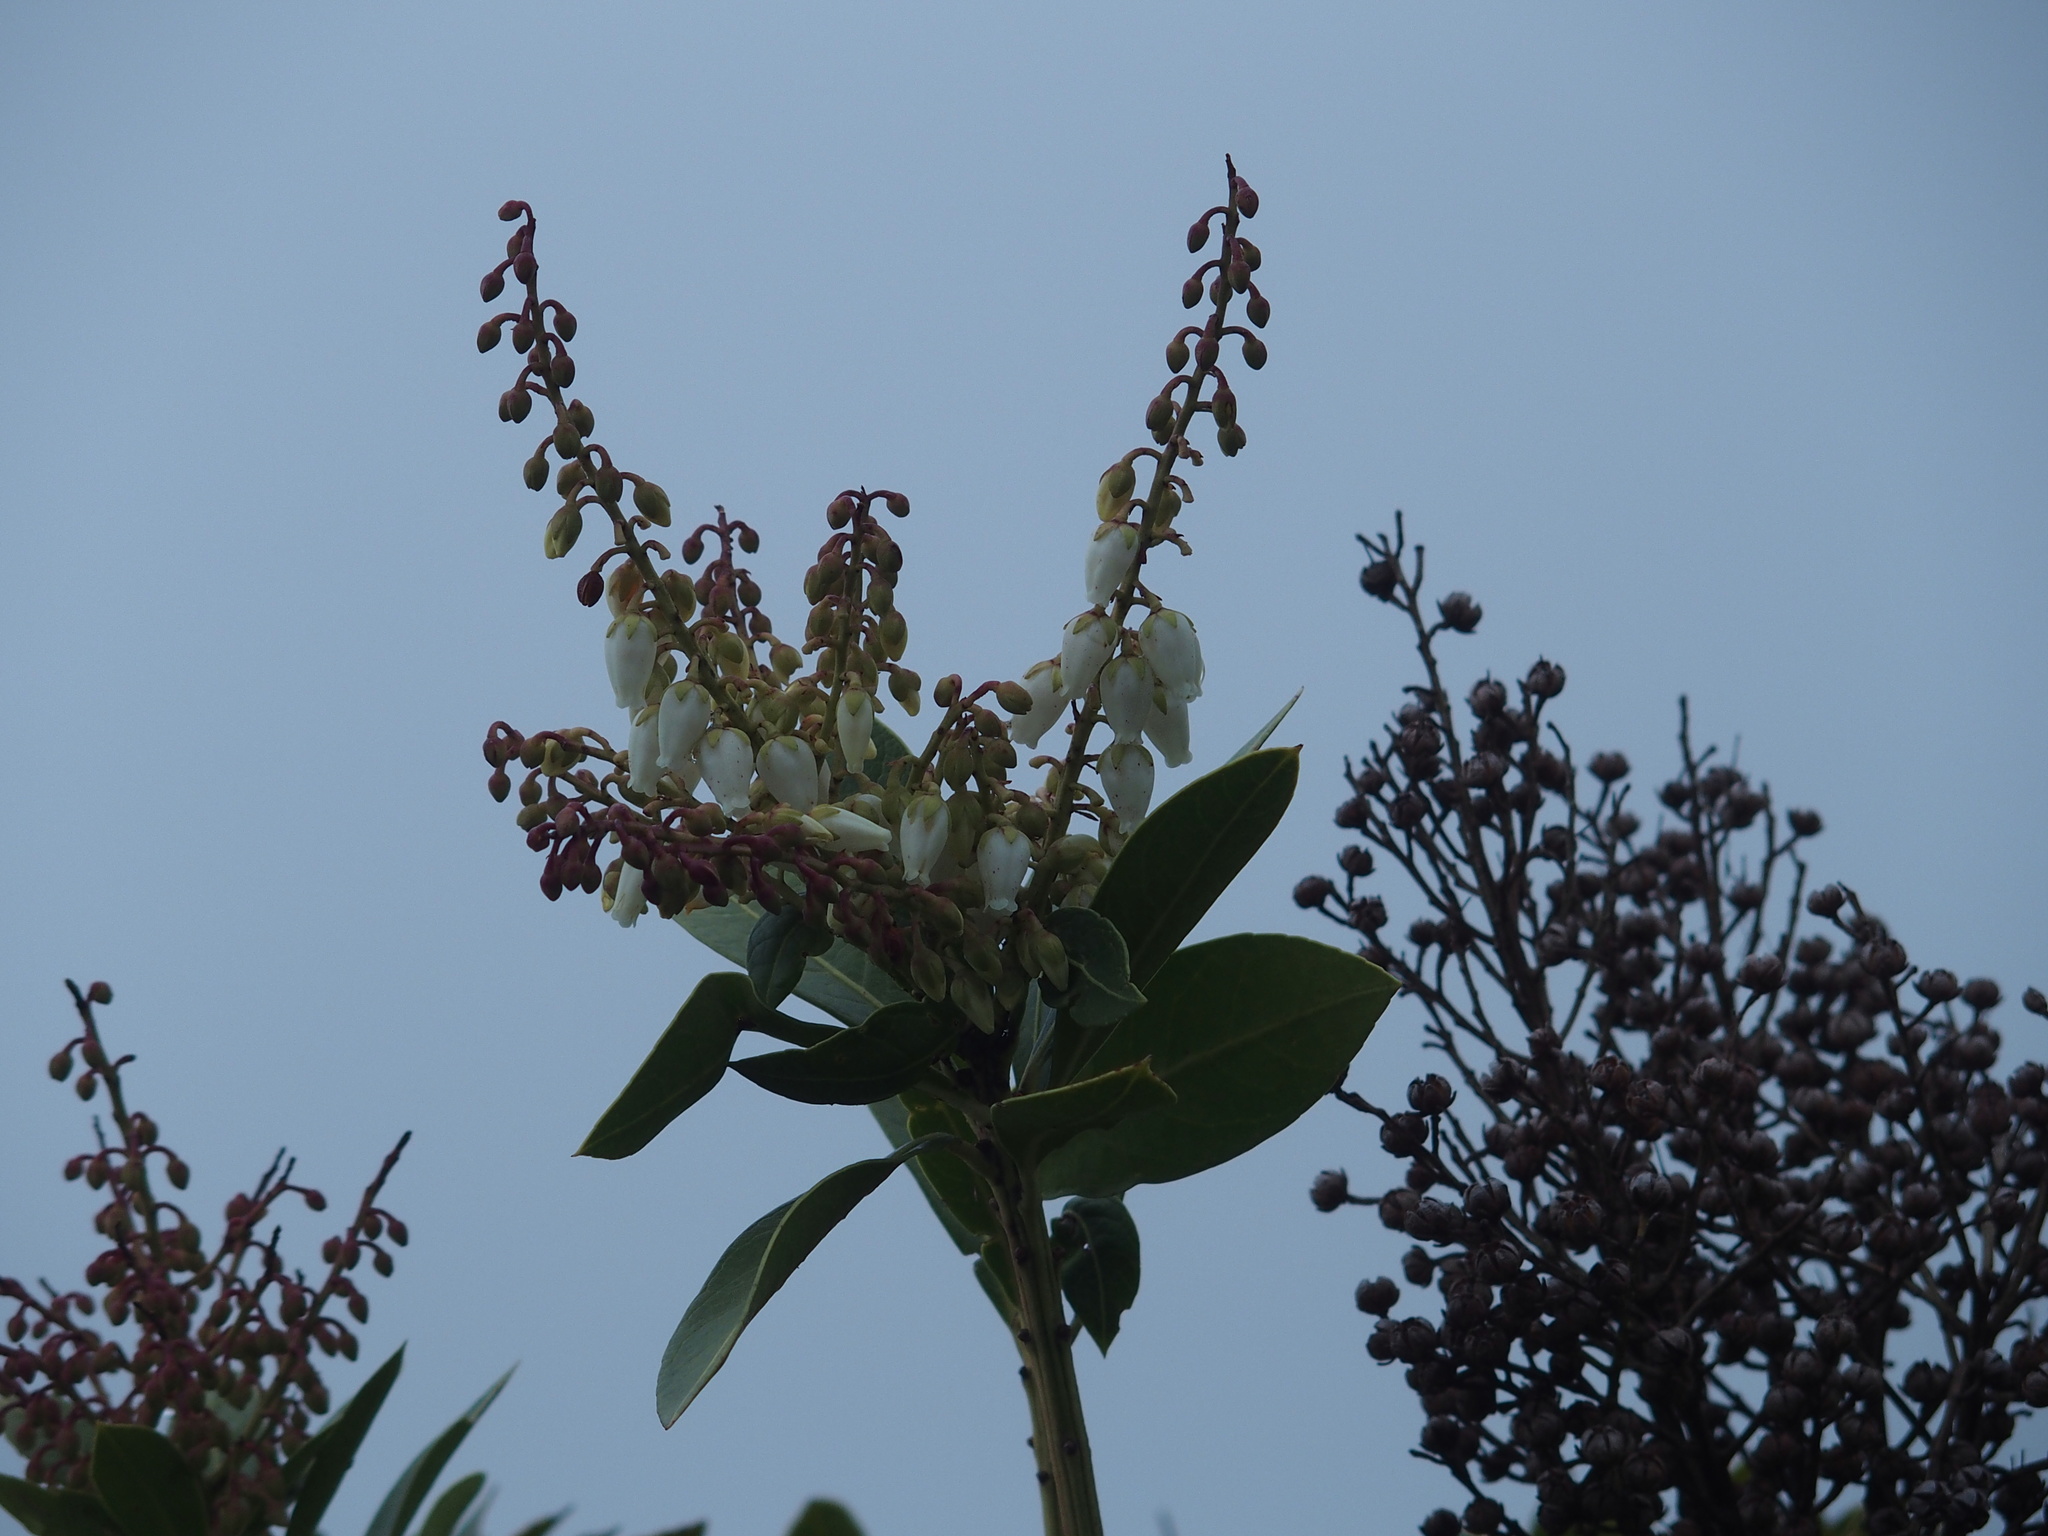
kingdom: Plantae
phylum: Tracheophyta
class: Magnoliopsida
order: Ericales
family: Ericaceae
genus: Pieris
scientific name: Pieris japonica
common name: Japanese pieris
